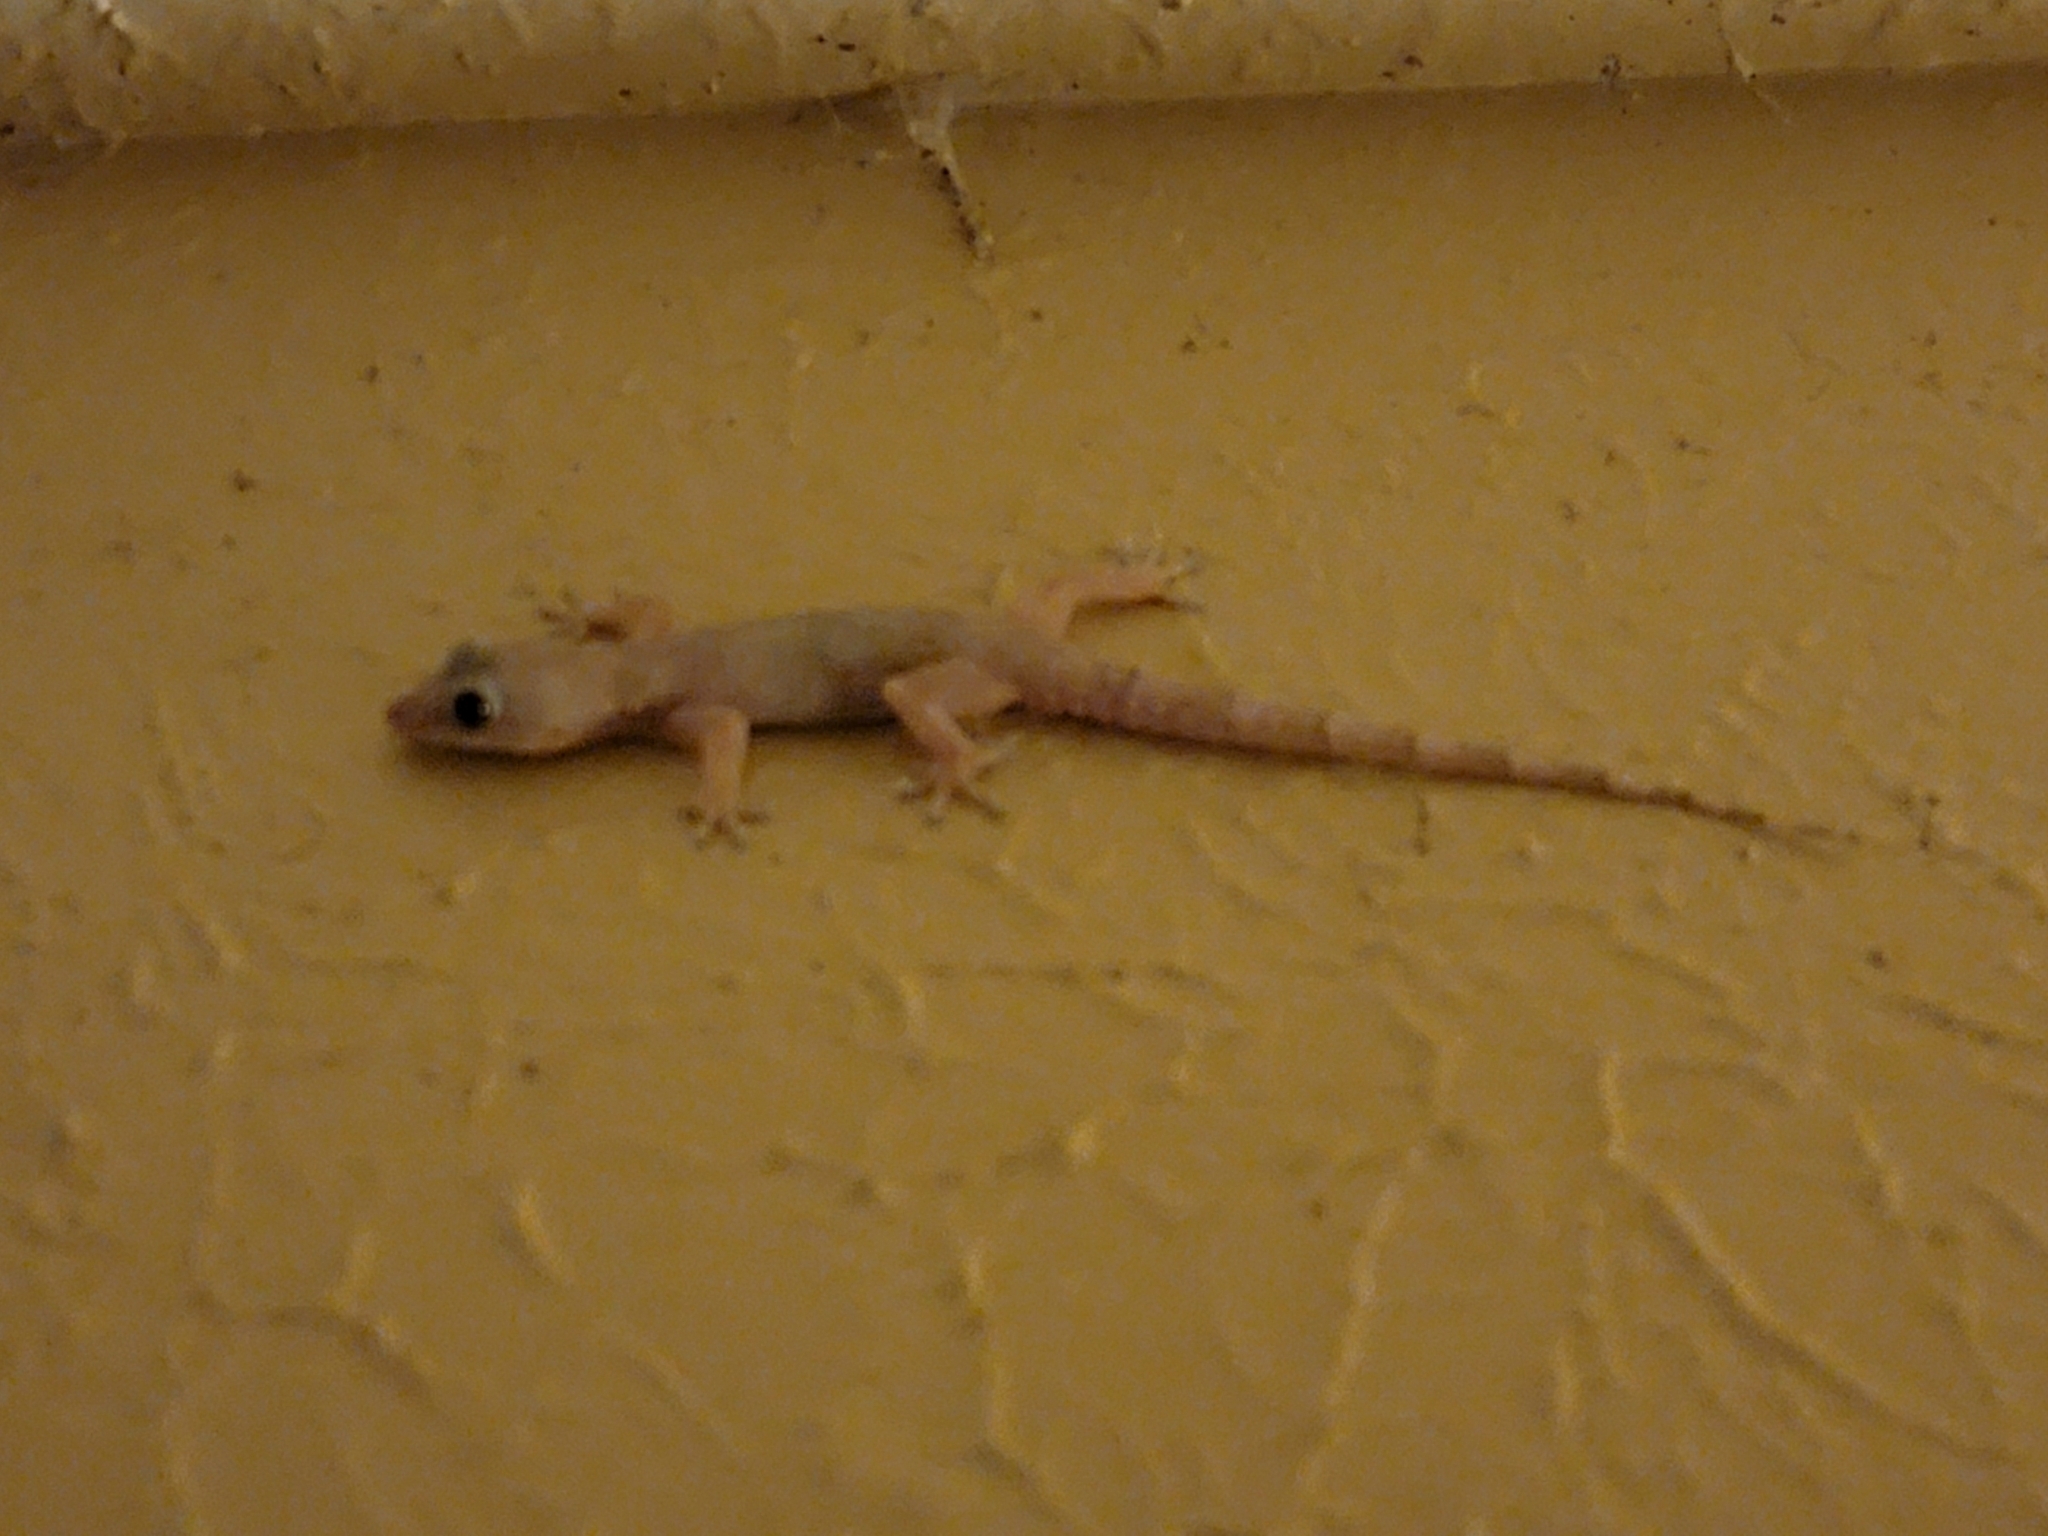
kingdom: Animalia
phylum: Chordata
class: Squamata
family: Gekkonidae
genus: Hemidactylus
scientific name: Hemidactylus mabouia
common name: House gecko
